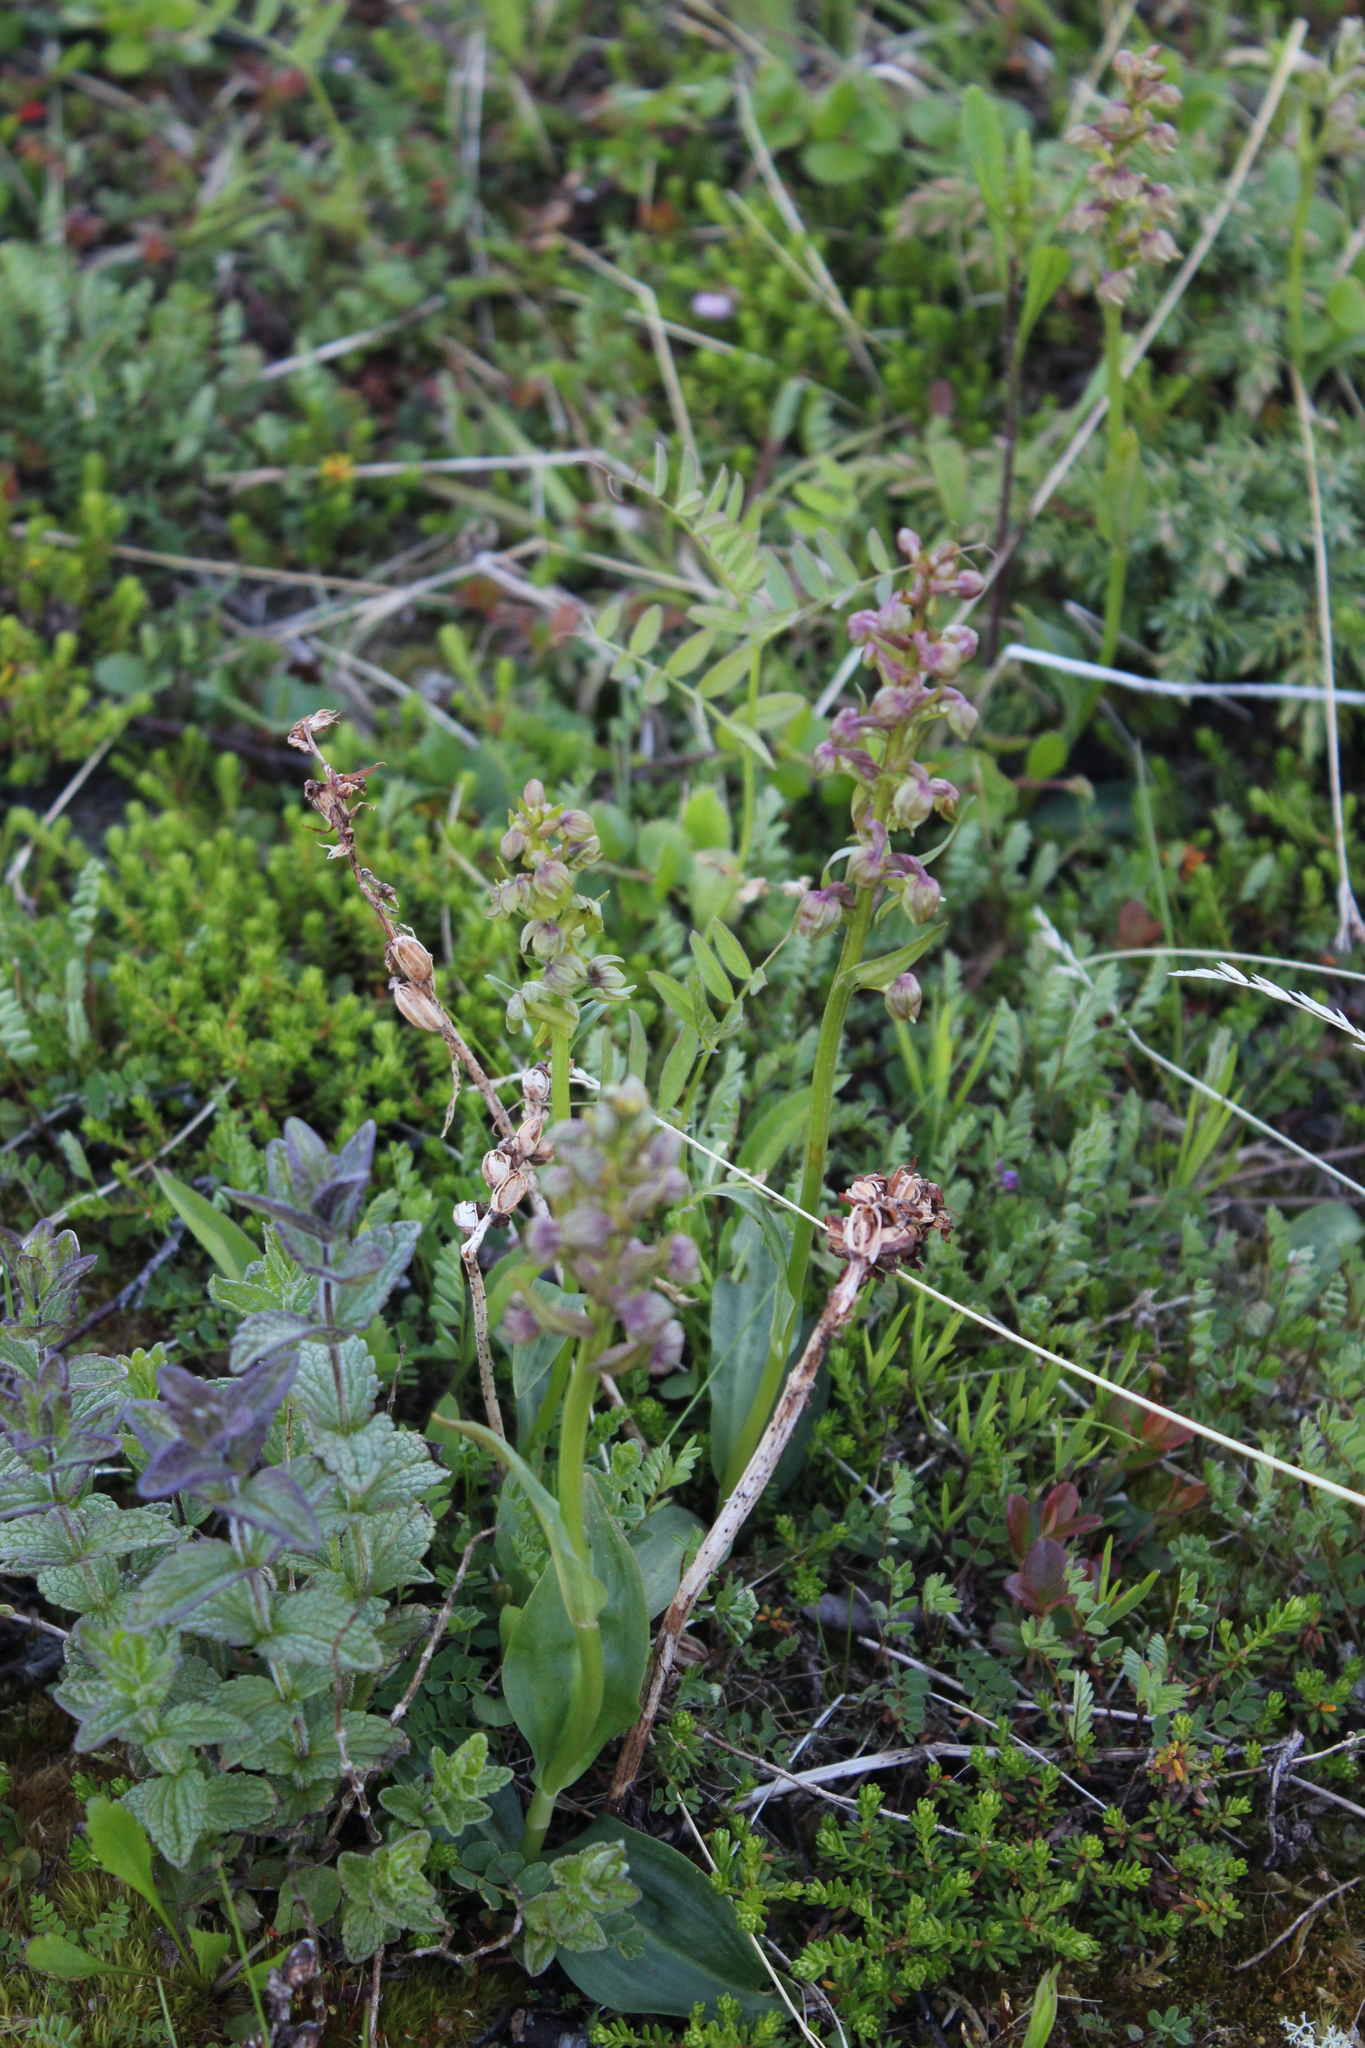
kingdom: Plantae
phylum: Tracheophyta
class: Liliopsida
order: Asparagales
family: Orchidaceae
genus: Dactylorhiza
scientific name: Dactylorhiza viridis
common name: Longbract frog orchid
